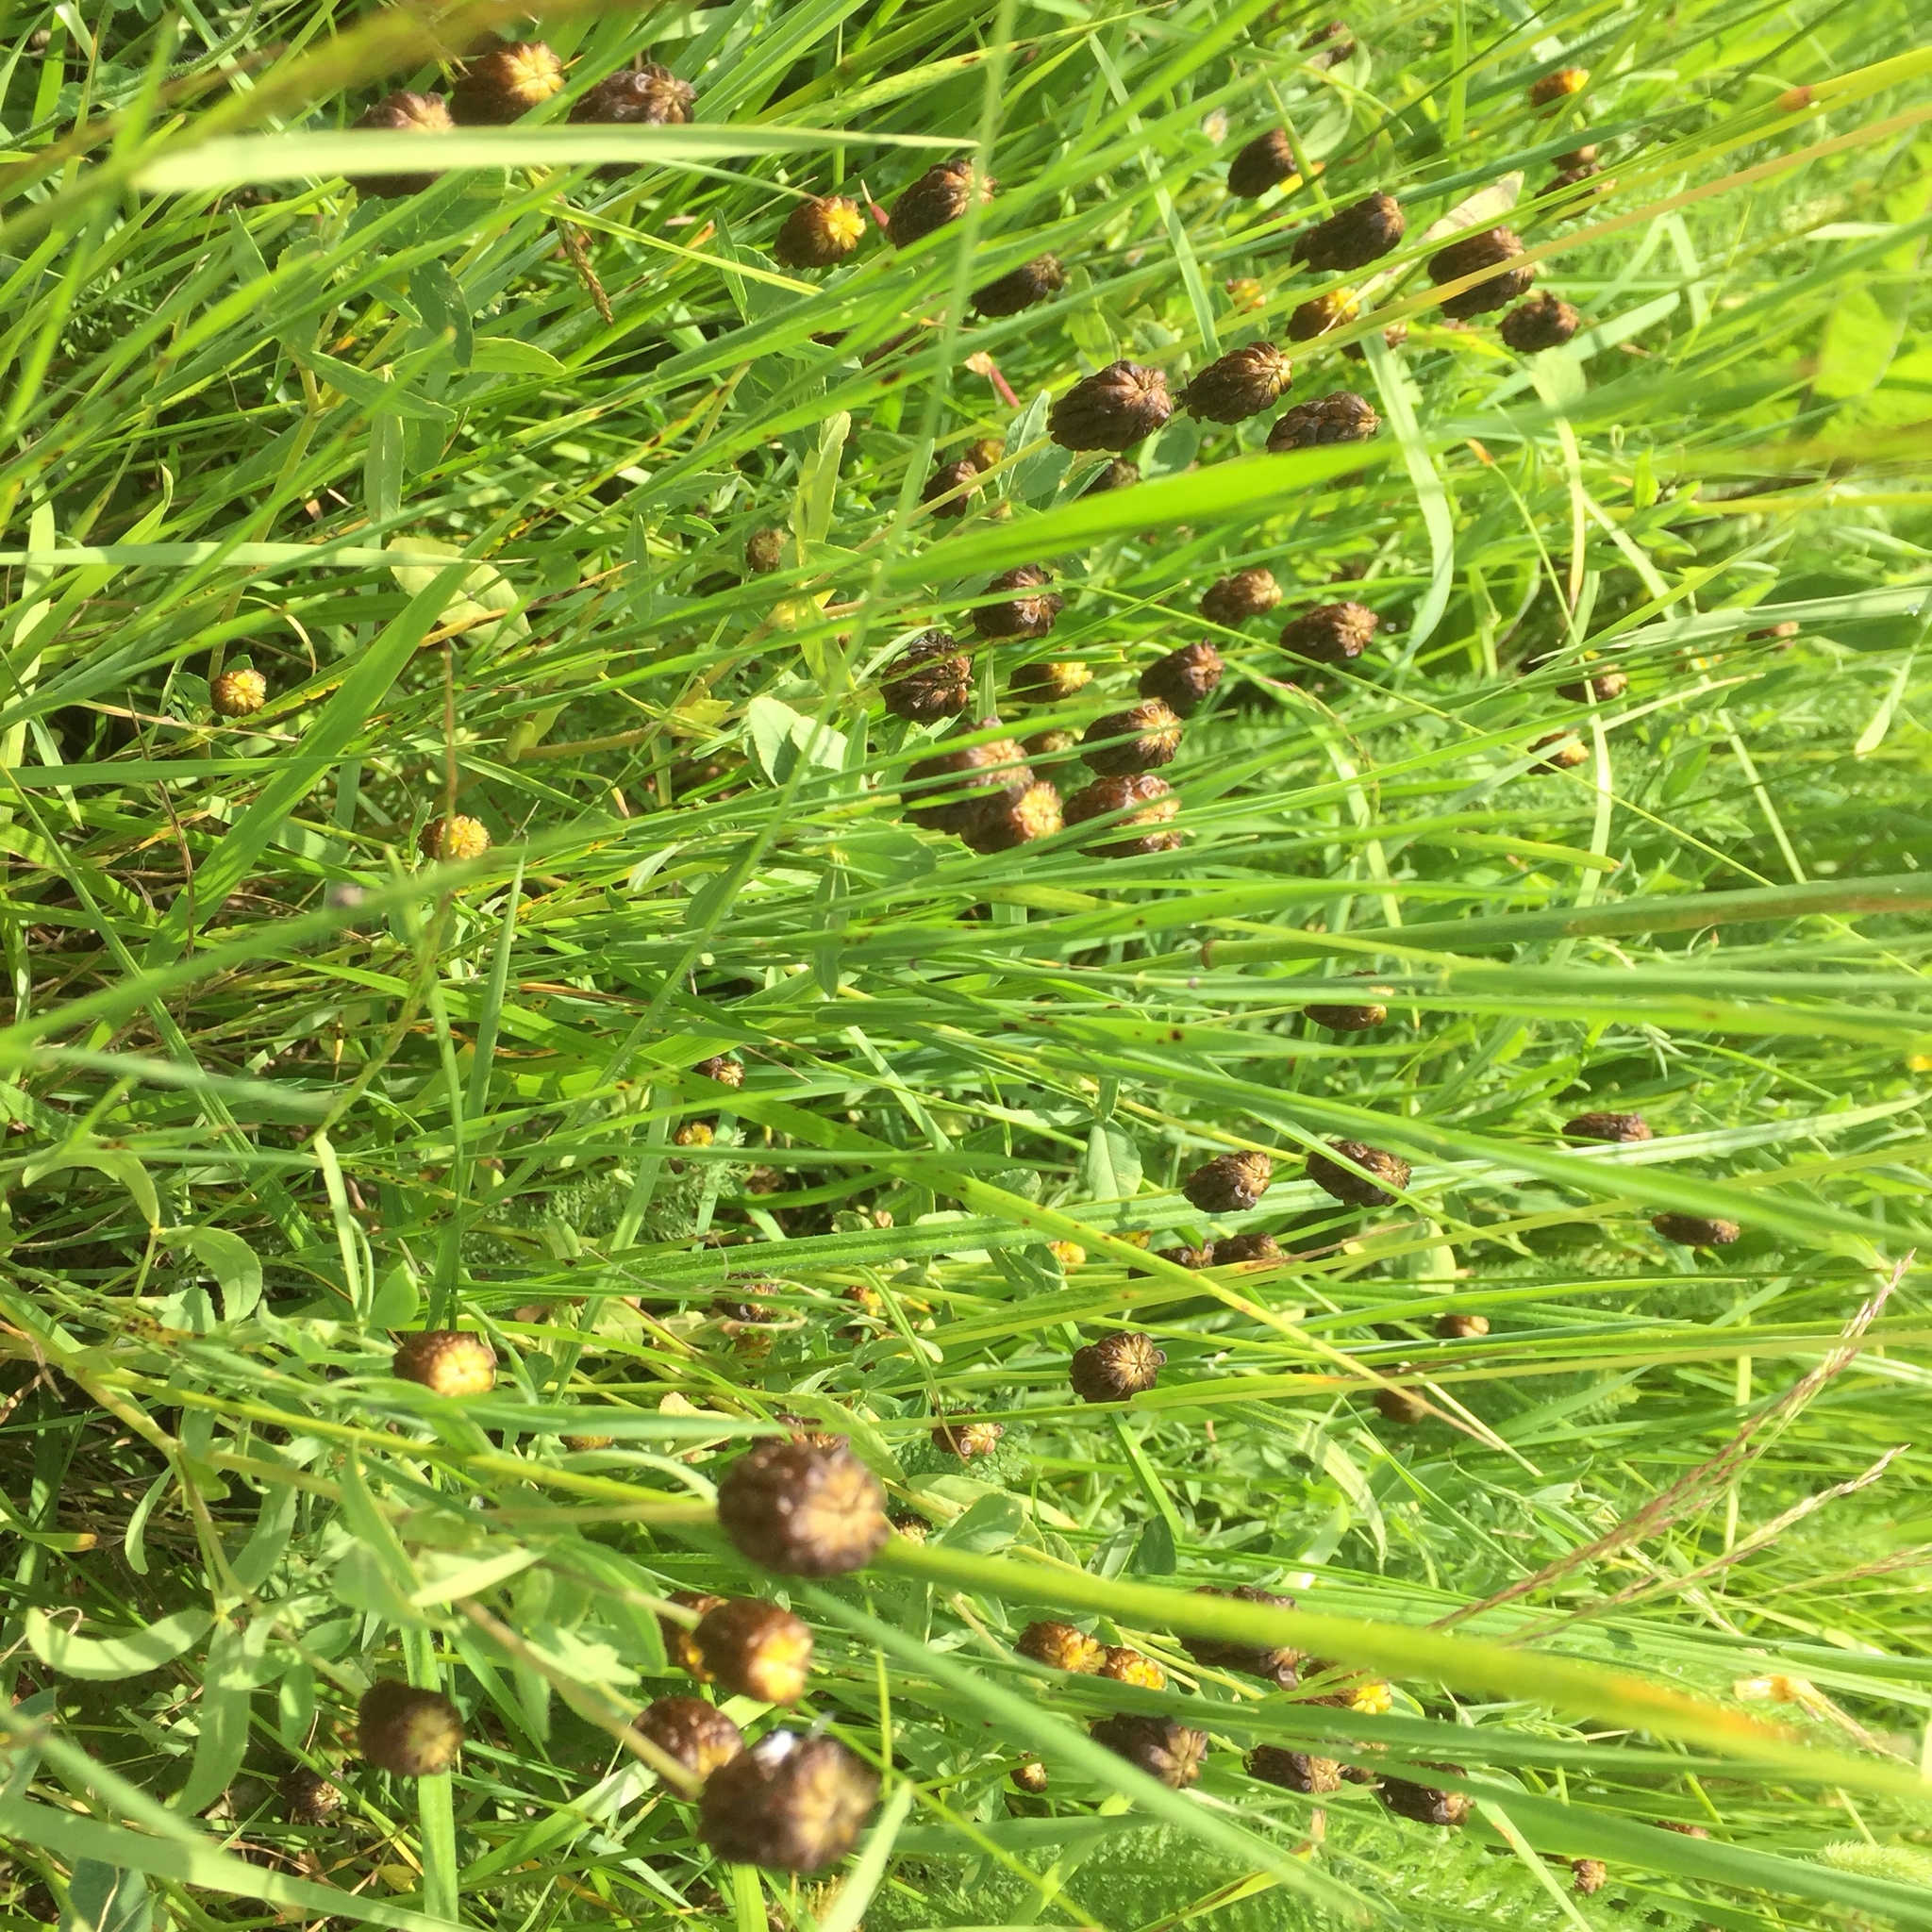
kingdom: Plantae
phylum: Tracheophyta
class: Magnoliopsida
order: Fabales
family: Fabaceae
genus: Trifolium
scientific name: Trifolium spadiceum
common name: Brown moor clover
